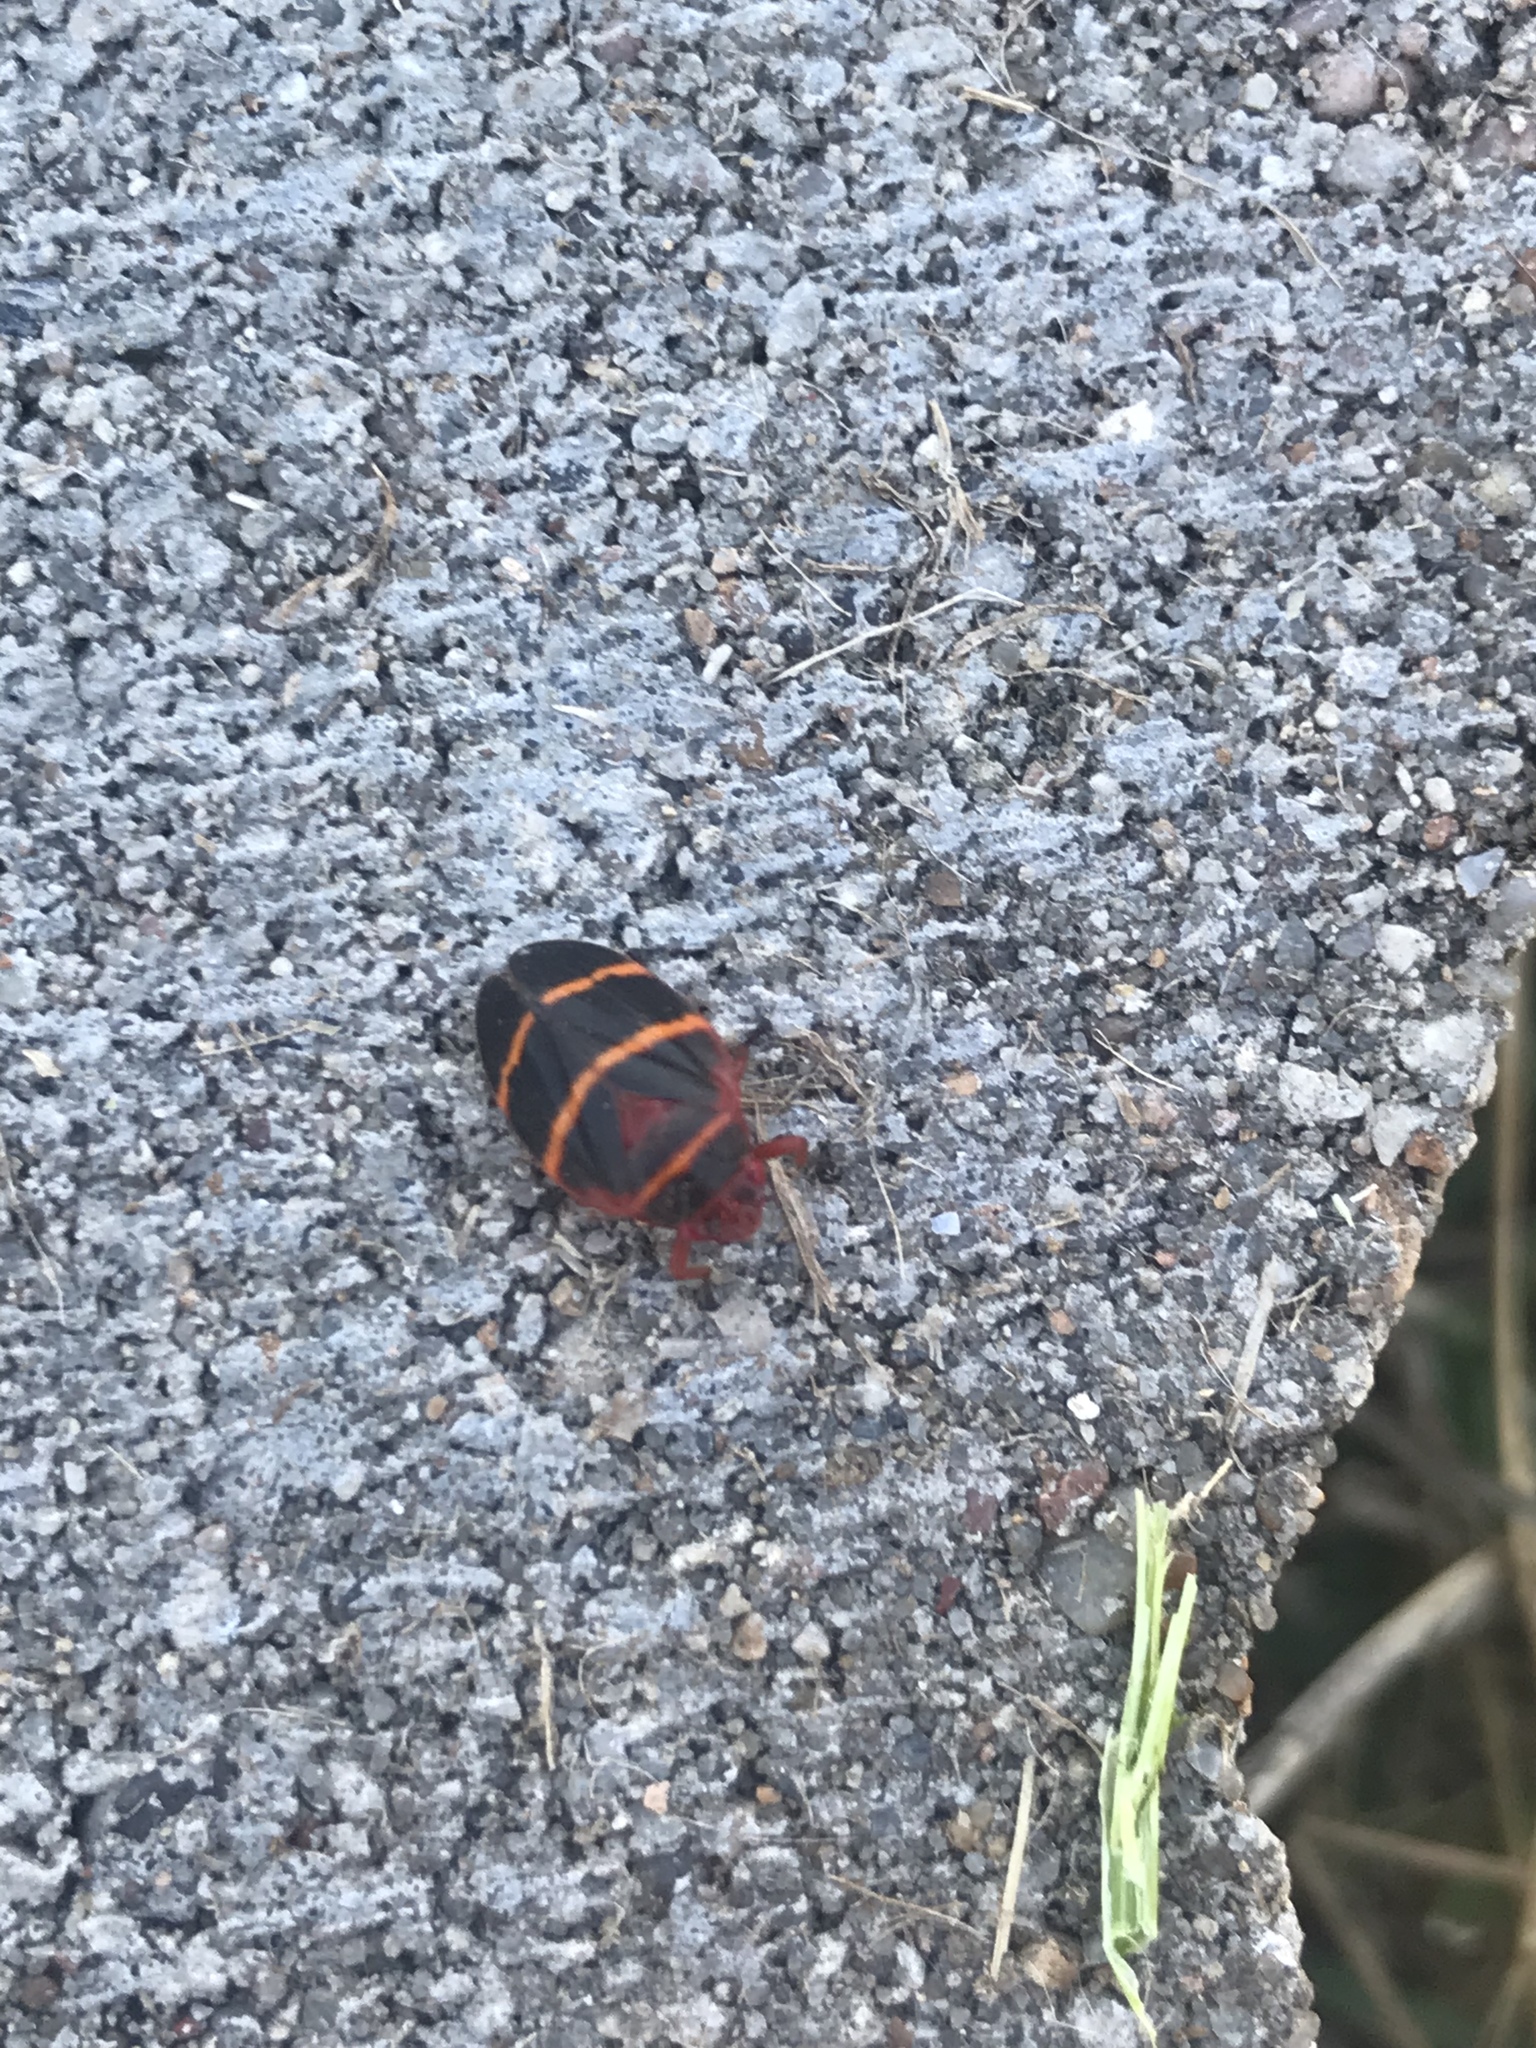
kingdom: Animalia
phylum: Arthropoda
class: Insecta
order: Hemiptera
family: Cercopidae
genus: Prosapia
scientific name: Prosapia bicincta
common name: Twolined spittlebug
